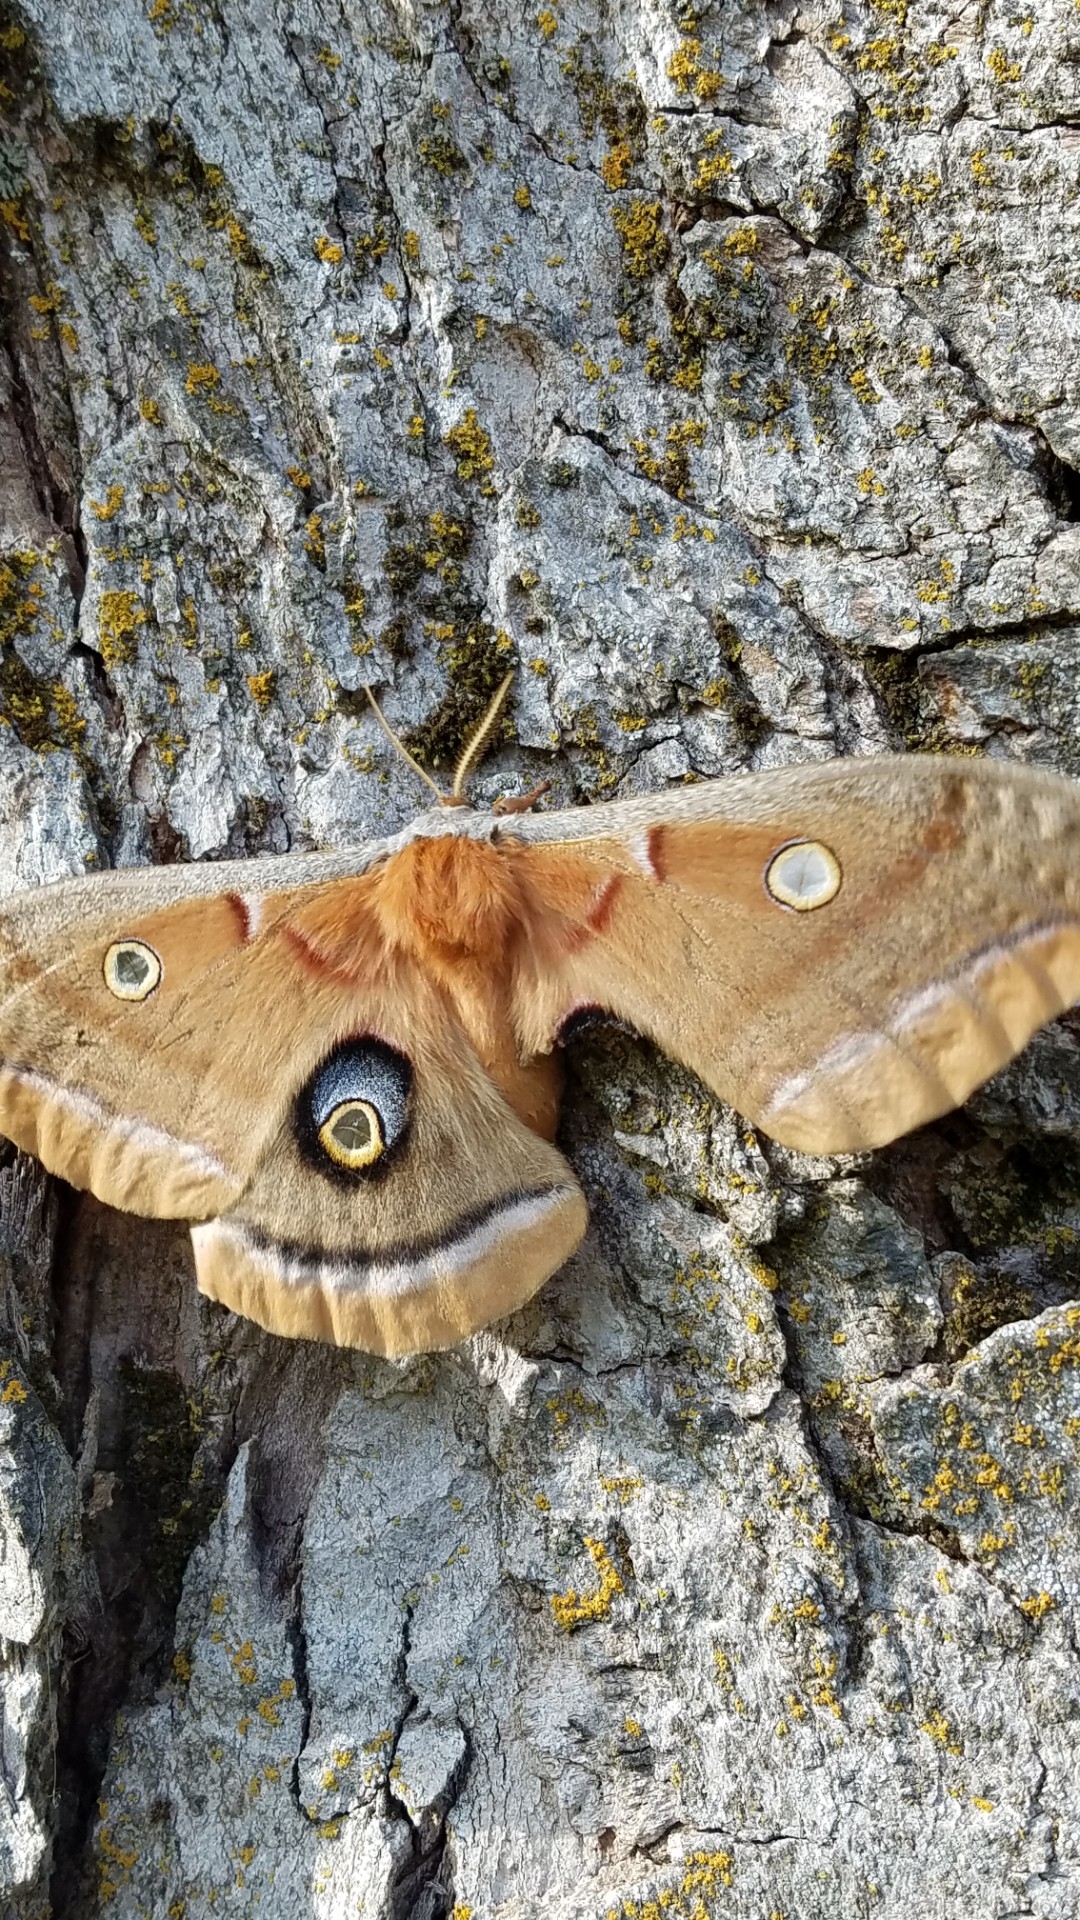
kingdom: Animalia
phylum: Arthropoda
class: Insecta
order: Lepidoptera
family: Saturniidae
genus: Antheraea
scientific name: Antheraea polyphemus
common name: Polyphemus moth
